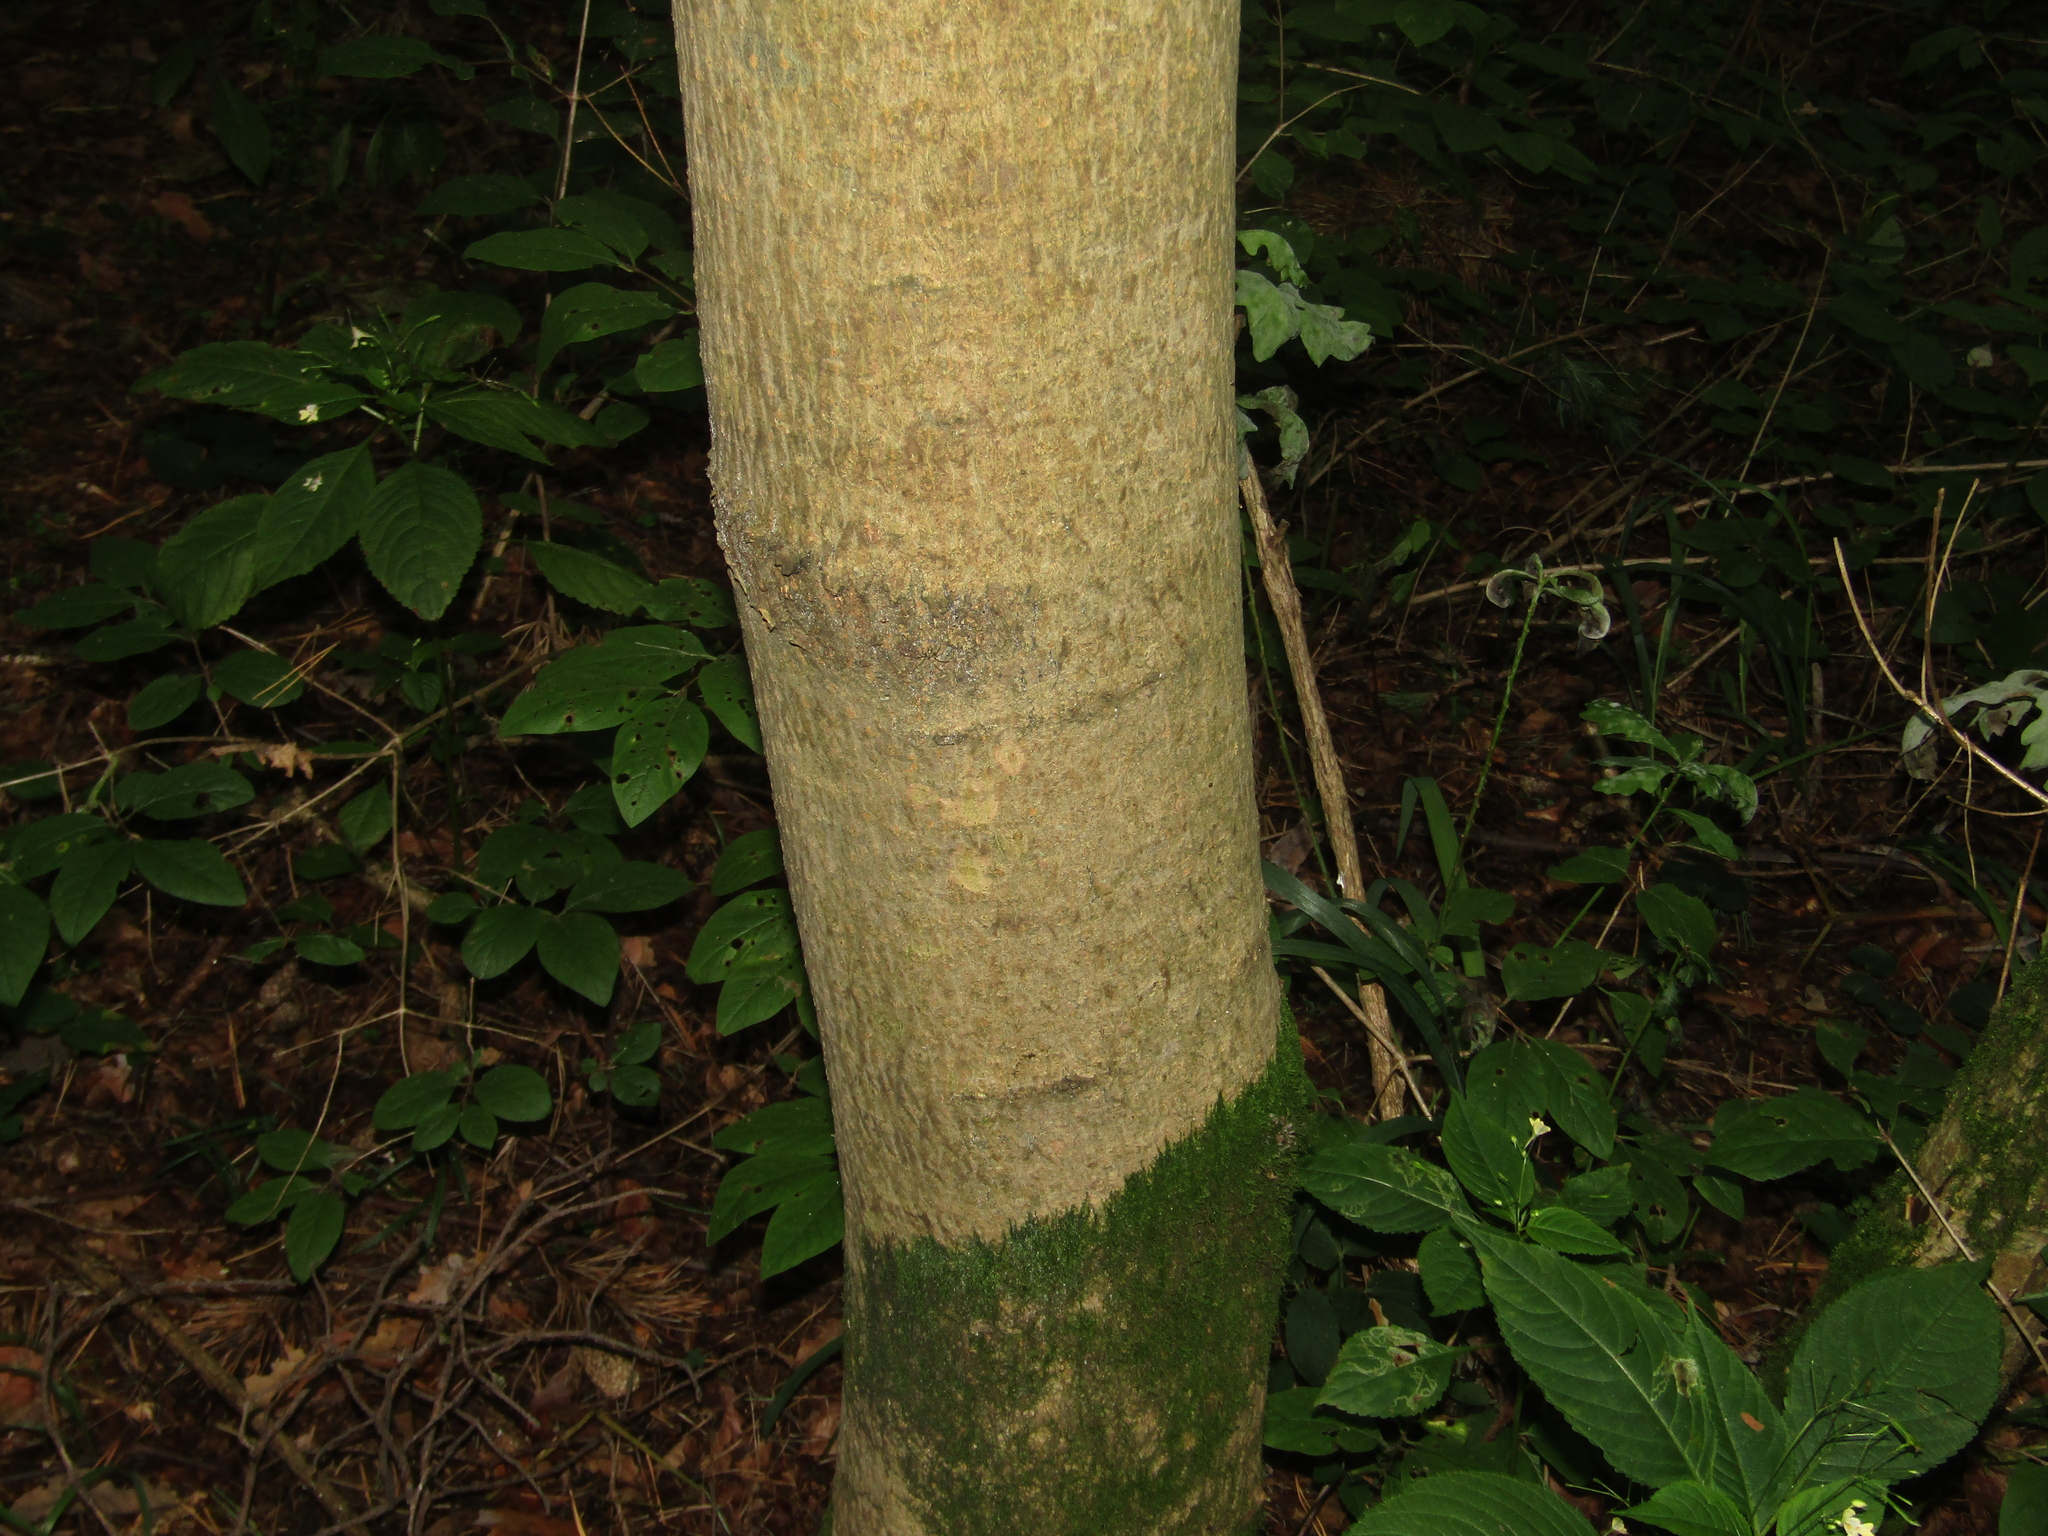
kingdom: Plantae
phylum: Tracheophyta
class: Magnoliopsida
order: Sapindales
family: Sapindaceae
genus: Acer
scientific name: Acer platanoides
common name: Norway maple
